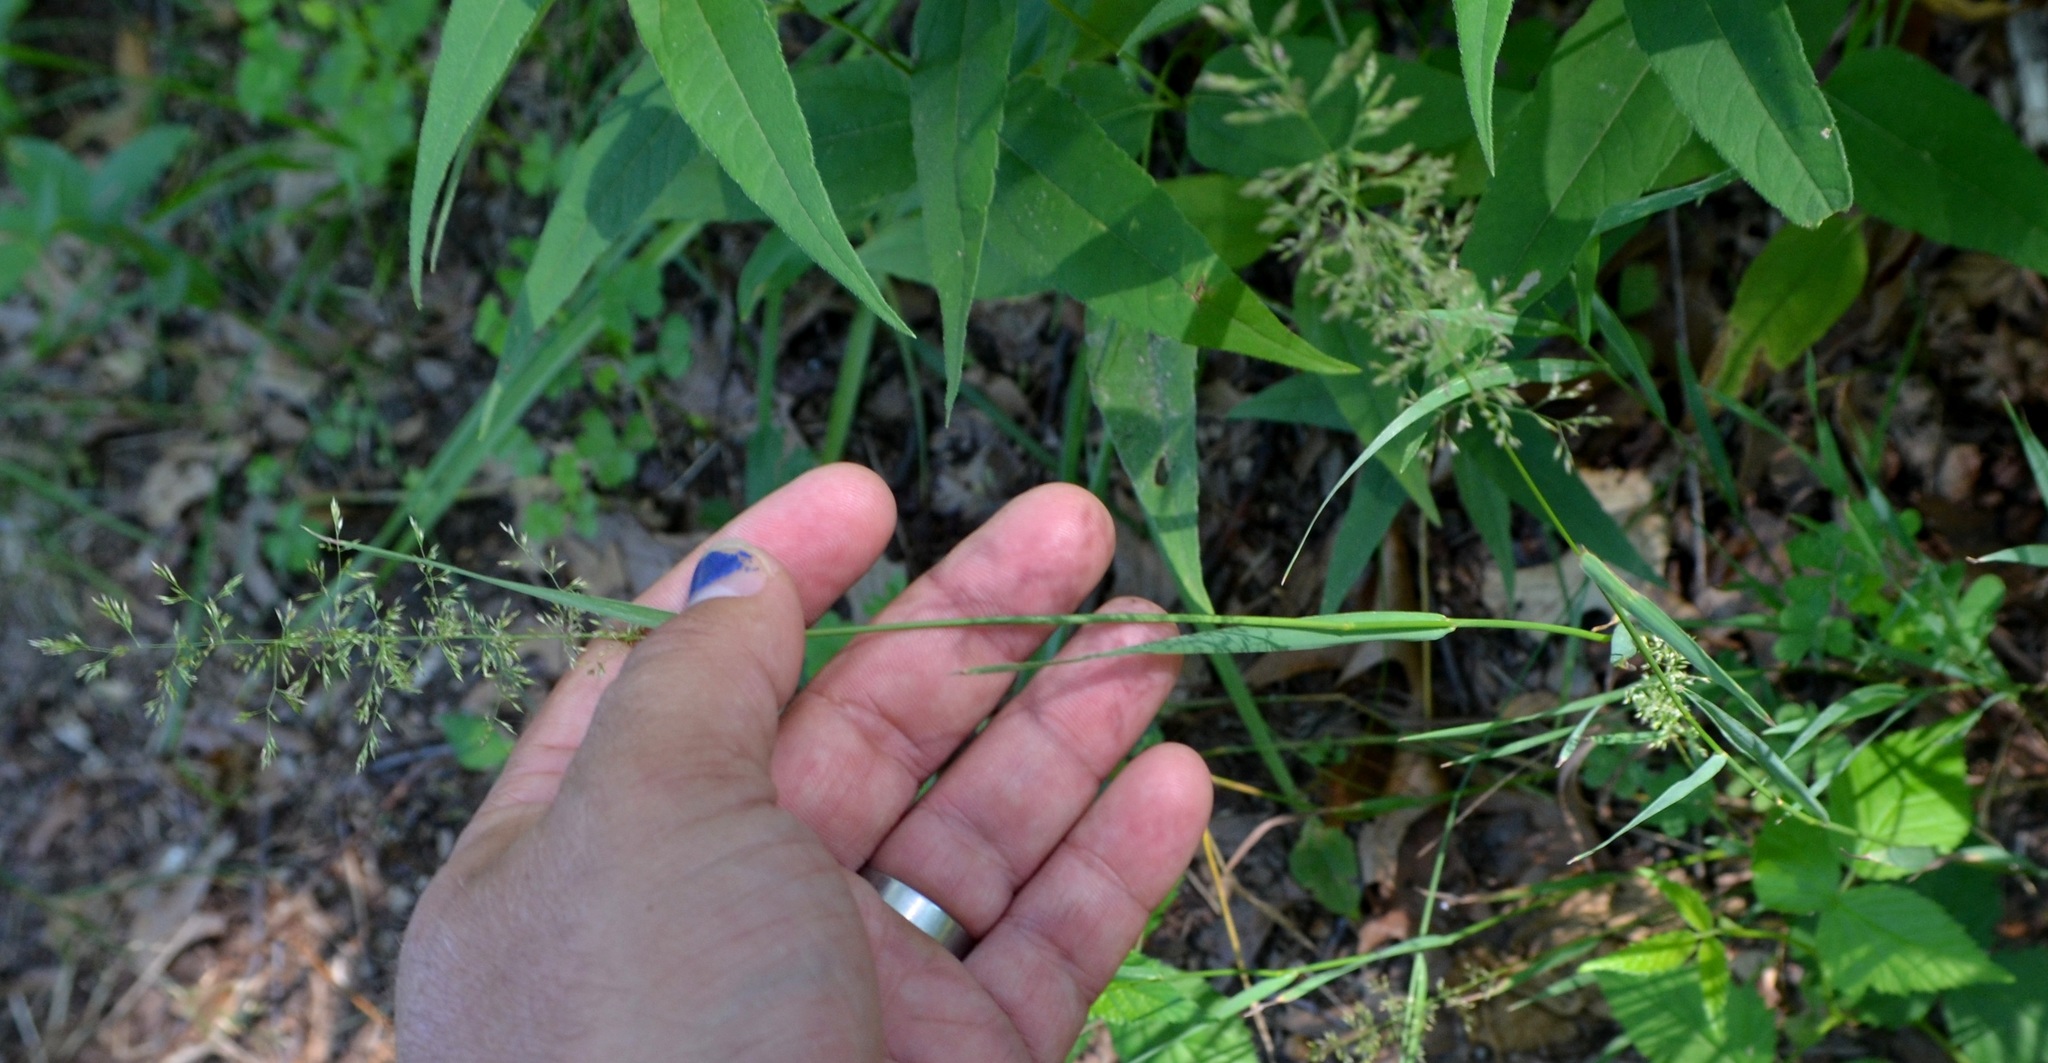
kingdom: Plantae
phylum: Tracheophyta
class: Liliopsida
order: Poales
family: Poaceae
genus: Poa
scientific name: Poa pratensis
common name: Kentucky bluegrass
